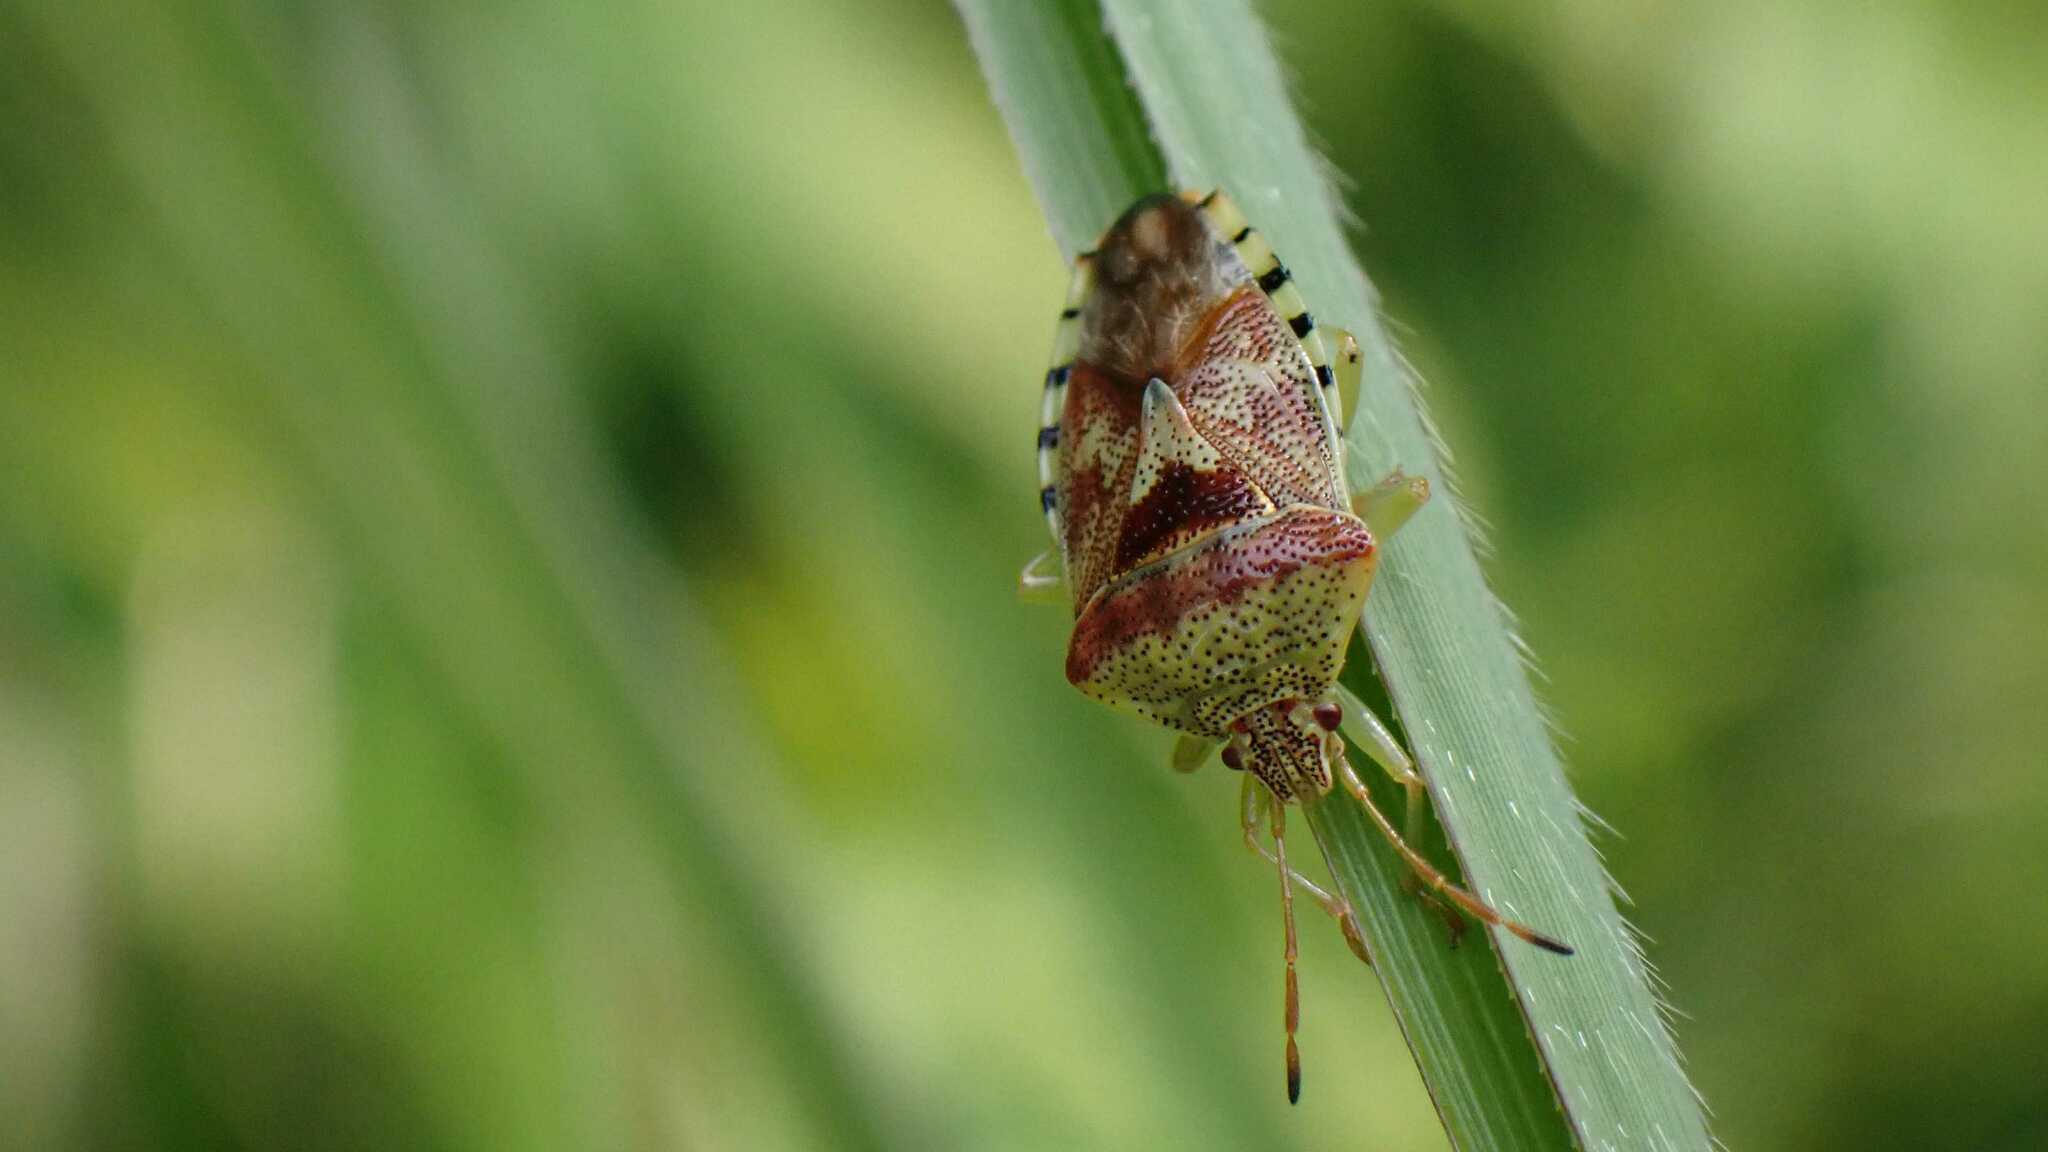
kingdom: Animalia
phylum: Arthropoda
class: Insecta
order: Hemiptera
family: Acanthosomatidae
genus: Elasmucha
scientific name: Elasmucha grisea
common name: Parent bug
